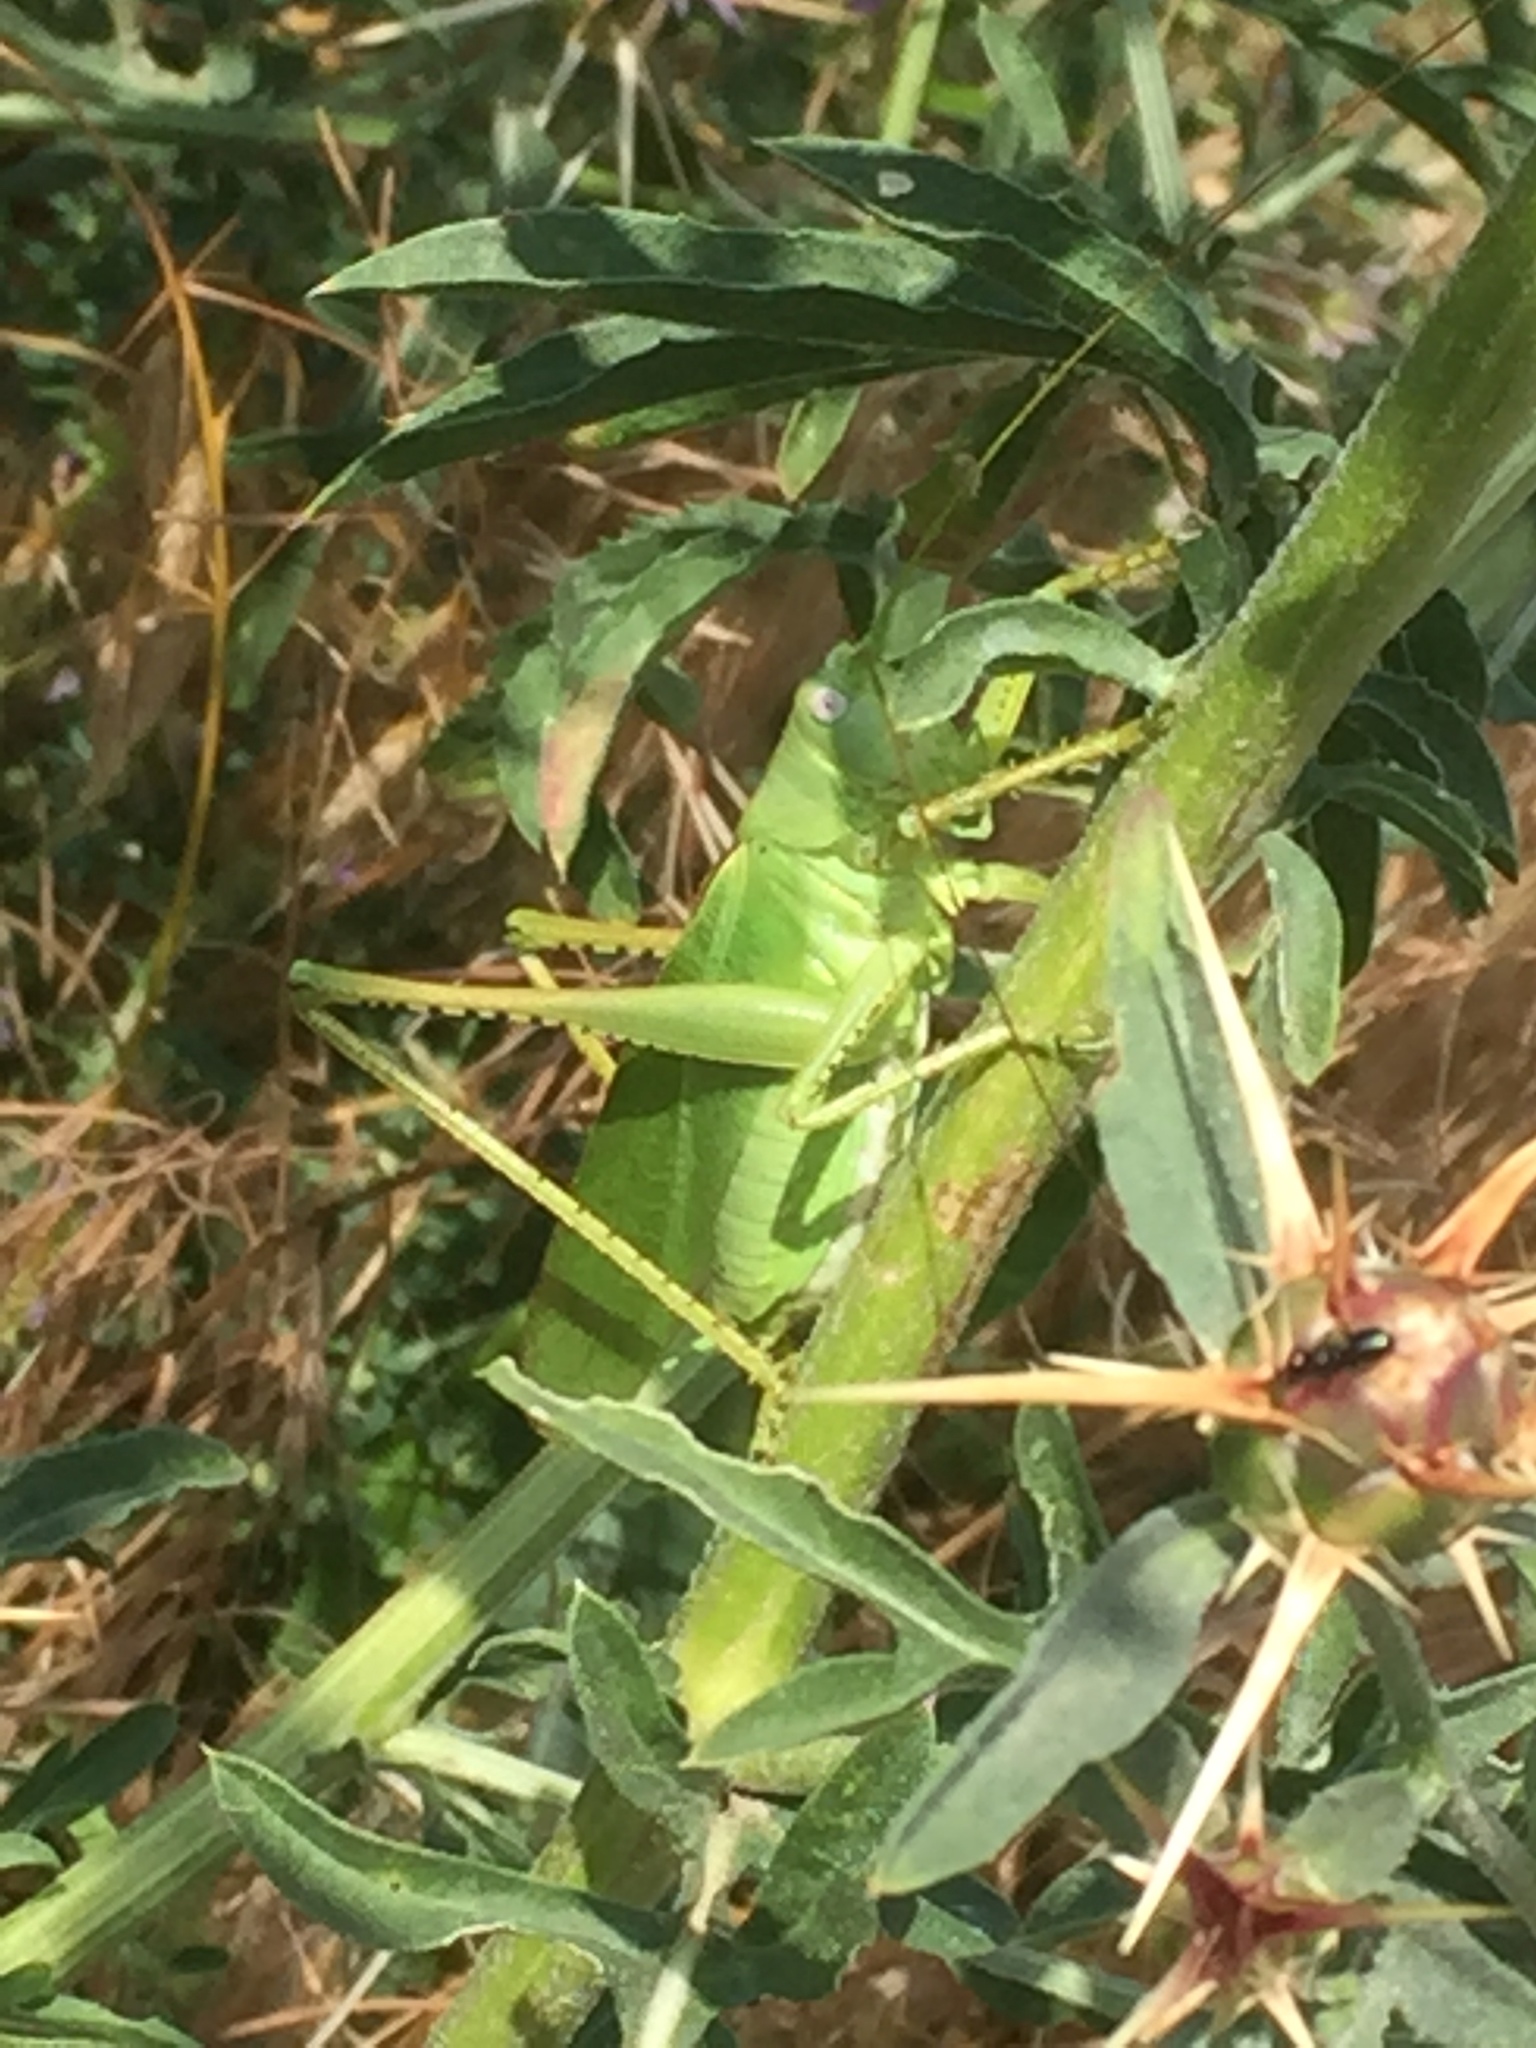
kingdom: Animalia
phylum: Arthropoda
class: Insecta
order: Orthoptera
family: Tettigoniidae
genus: Tettigonia
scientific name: Tettigonia caudata
